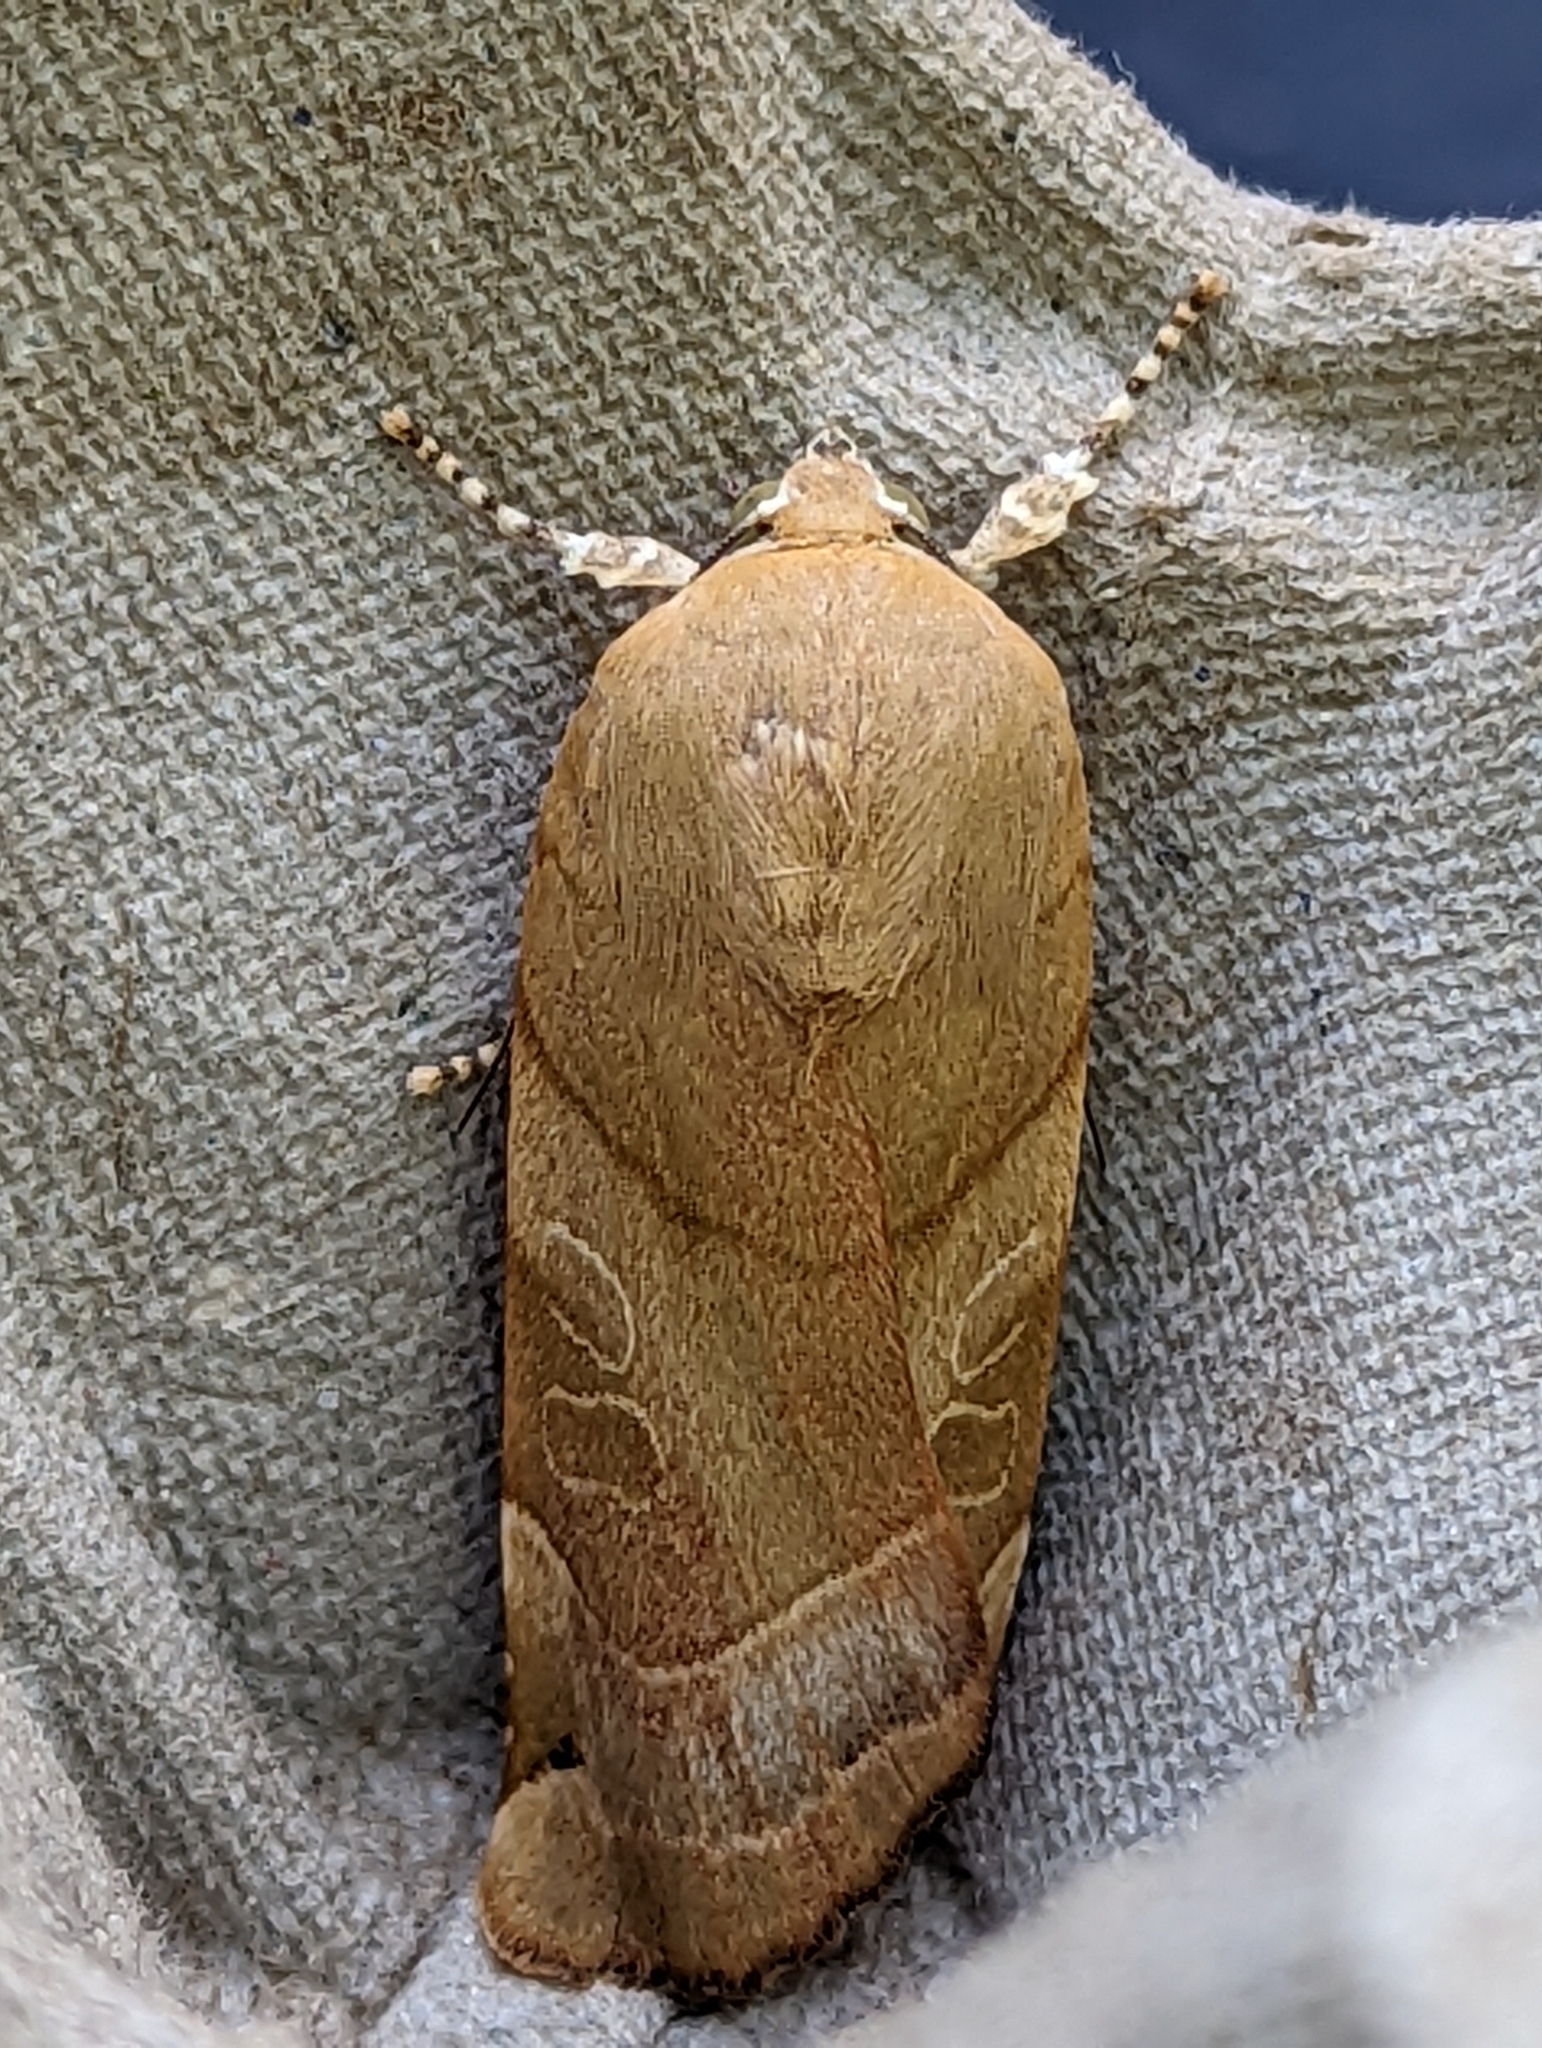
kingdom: Animalia
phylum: Arthropoda
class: Insecta
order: Lepidoptera
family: Noctuidae
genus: Noctua
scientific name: Noctua fimbriata
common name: Broad-bordered yellow underwing
